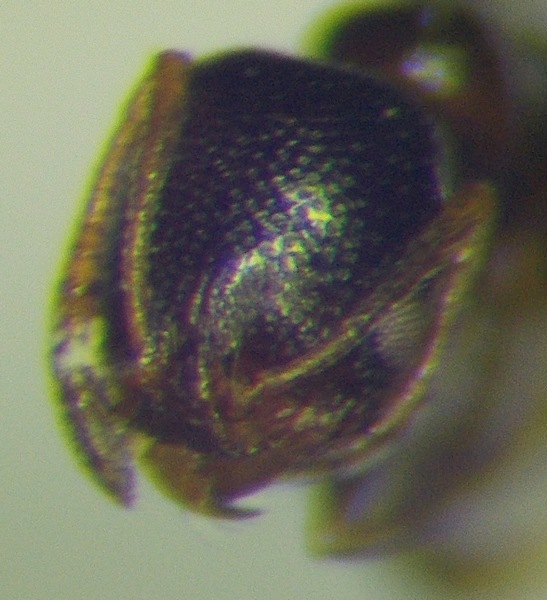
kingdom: Animalia
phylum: Arthropoda
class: Insecta
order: Hymenoptera
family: Formicidae
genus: Cardiocondyla
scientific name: Cardiocondyla sahlbergi
